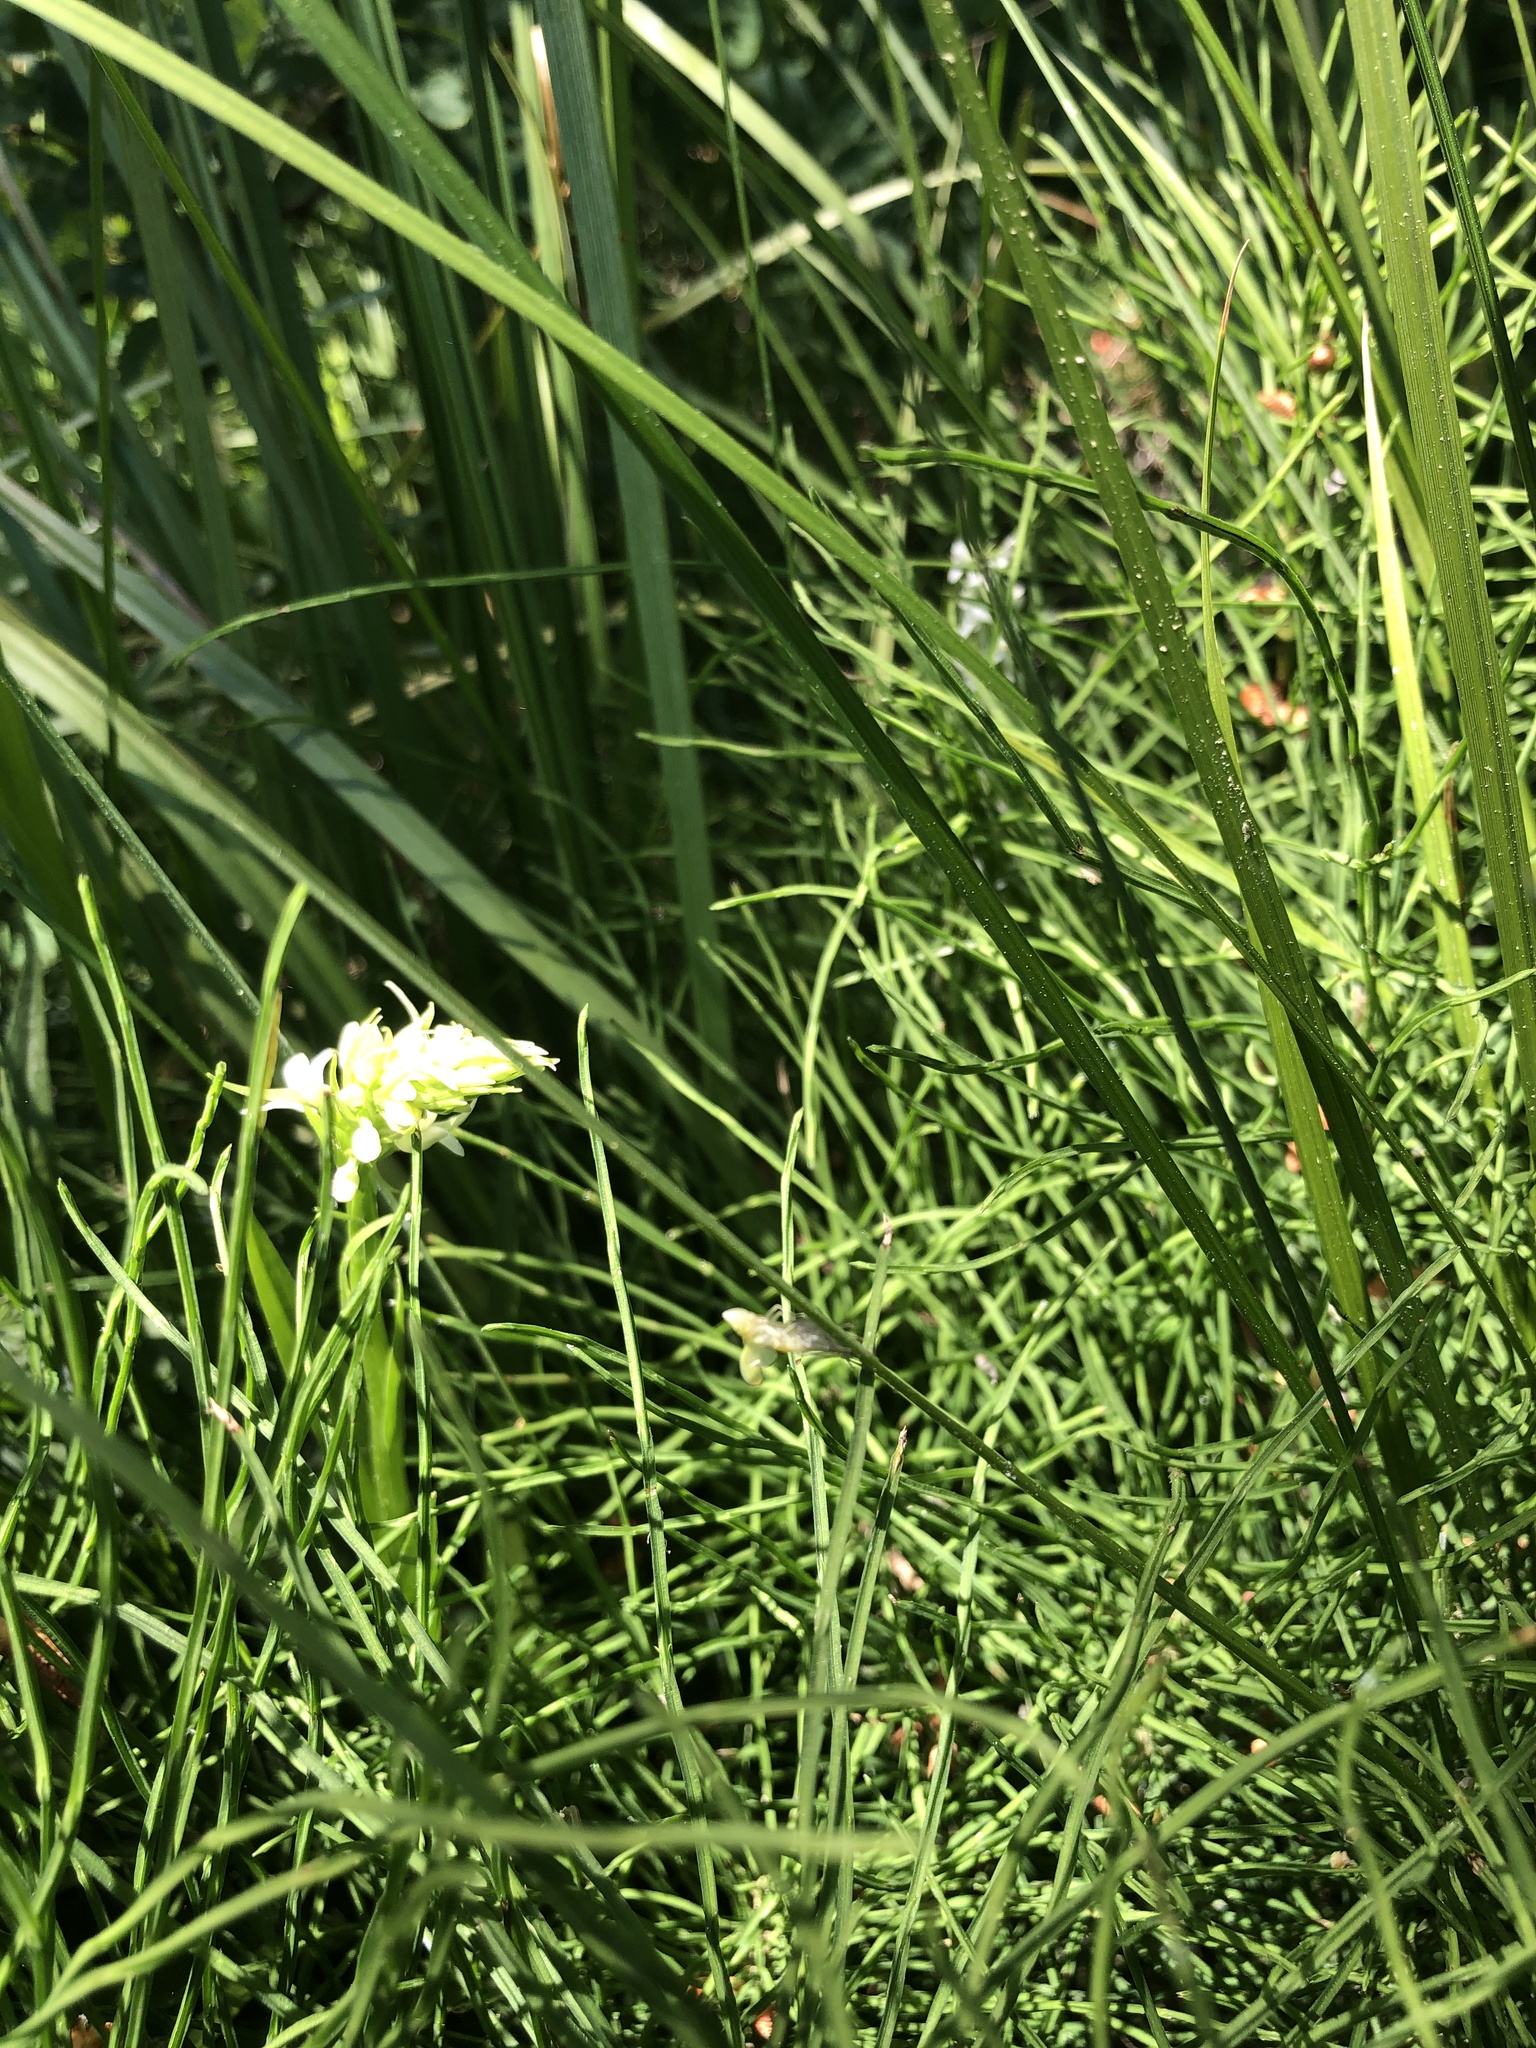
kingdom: Plantae
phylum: Tracheophyta
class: Liliopsida
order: Asparagales
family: Orchidaceae
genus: Platanthera
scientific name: Platanthera dilatata
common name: Bog candles
